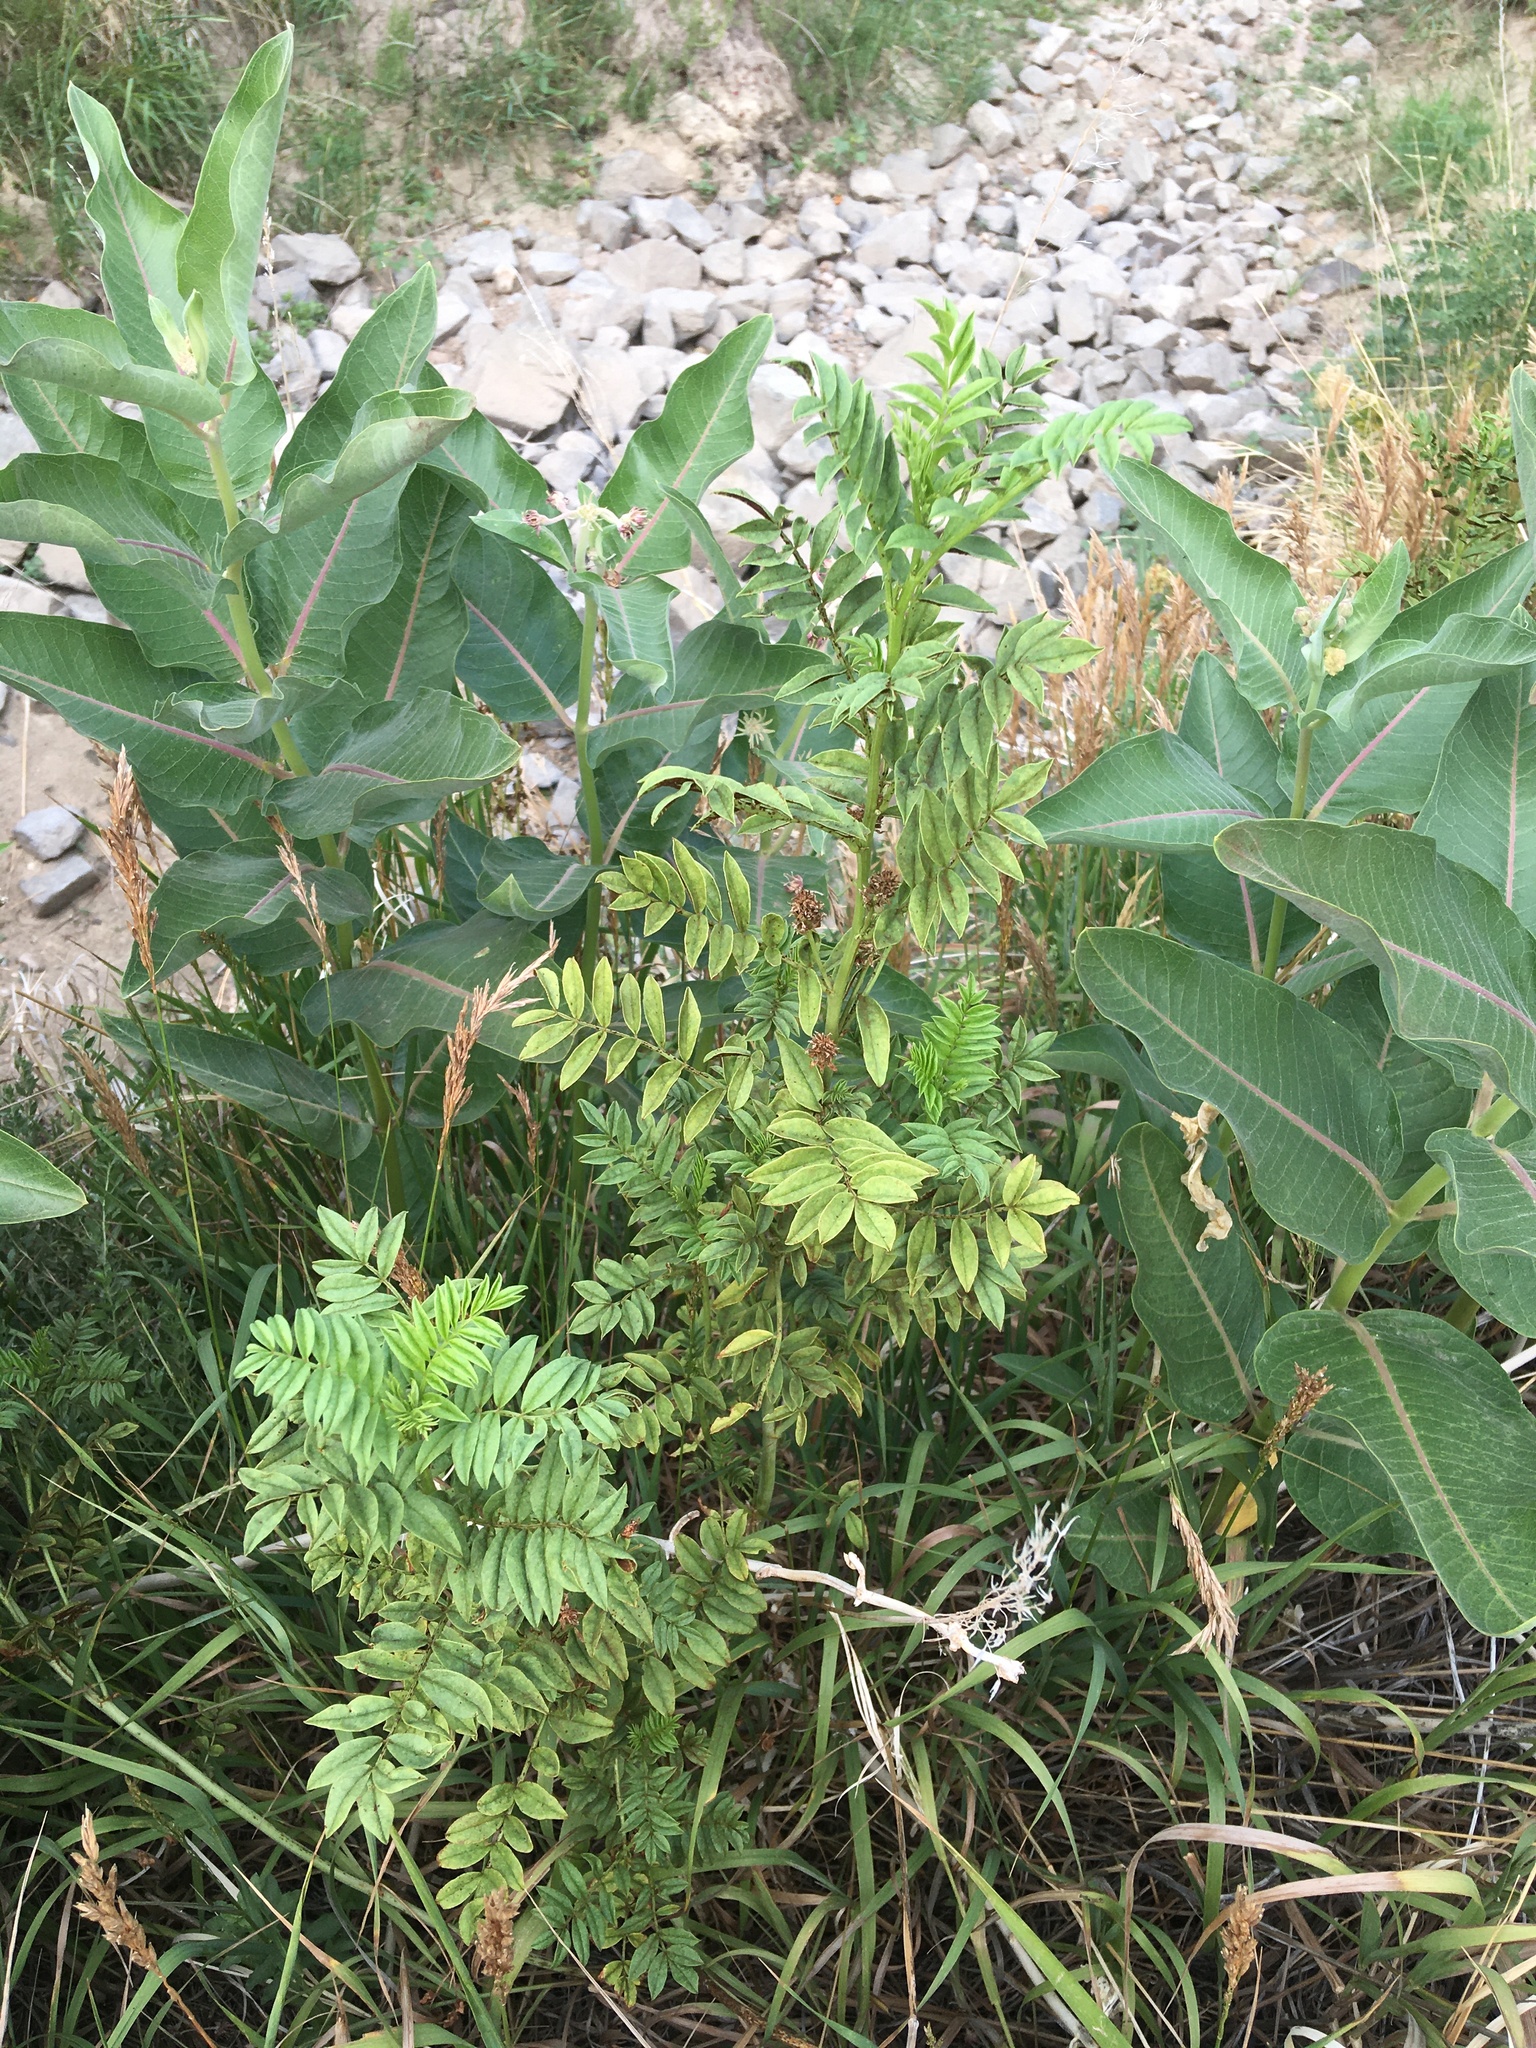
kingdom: Plantae
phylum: Tracheophyta
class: Magnoliopsida
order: Fabales
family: Fabaceae
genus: Glycyrrhiza
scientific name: Glycyrrhiza lepidota
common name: American liquorice
